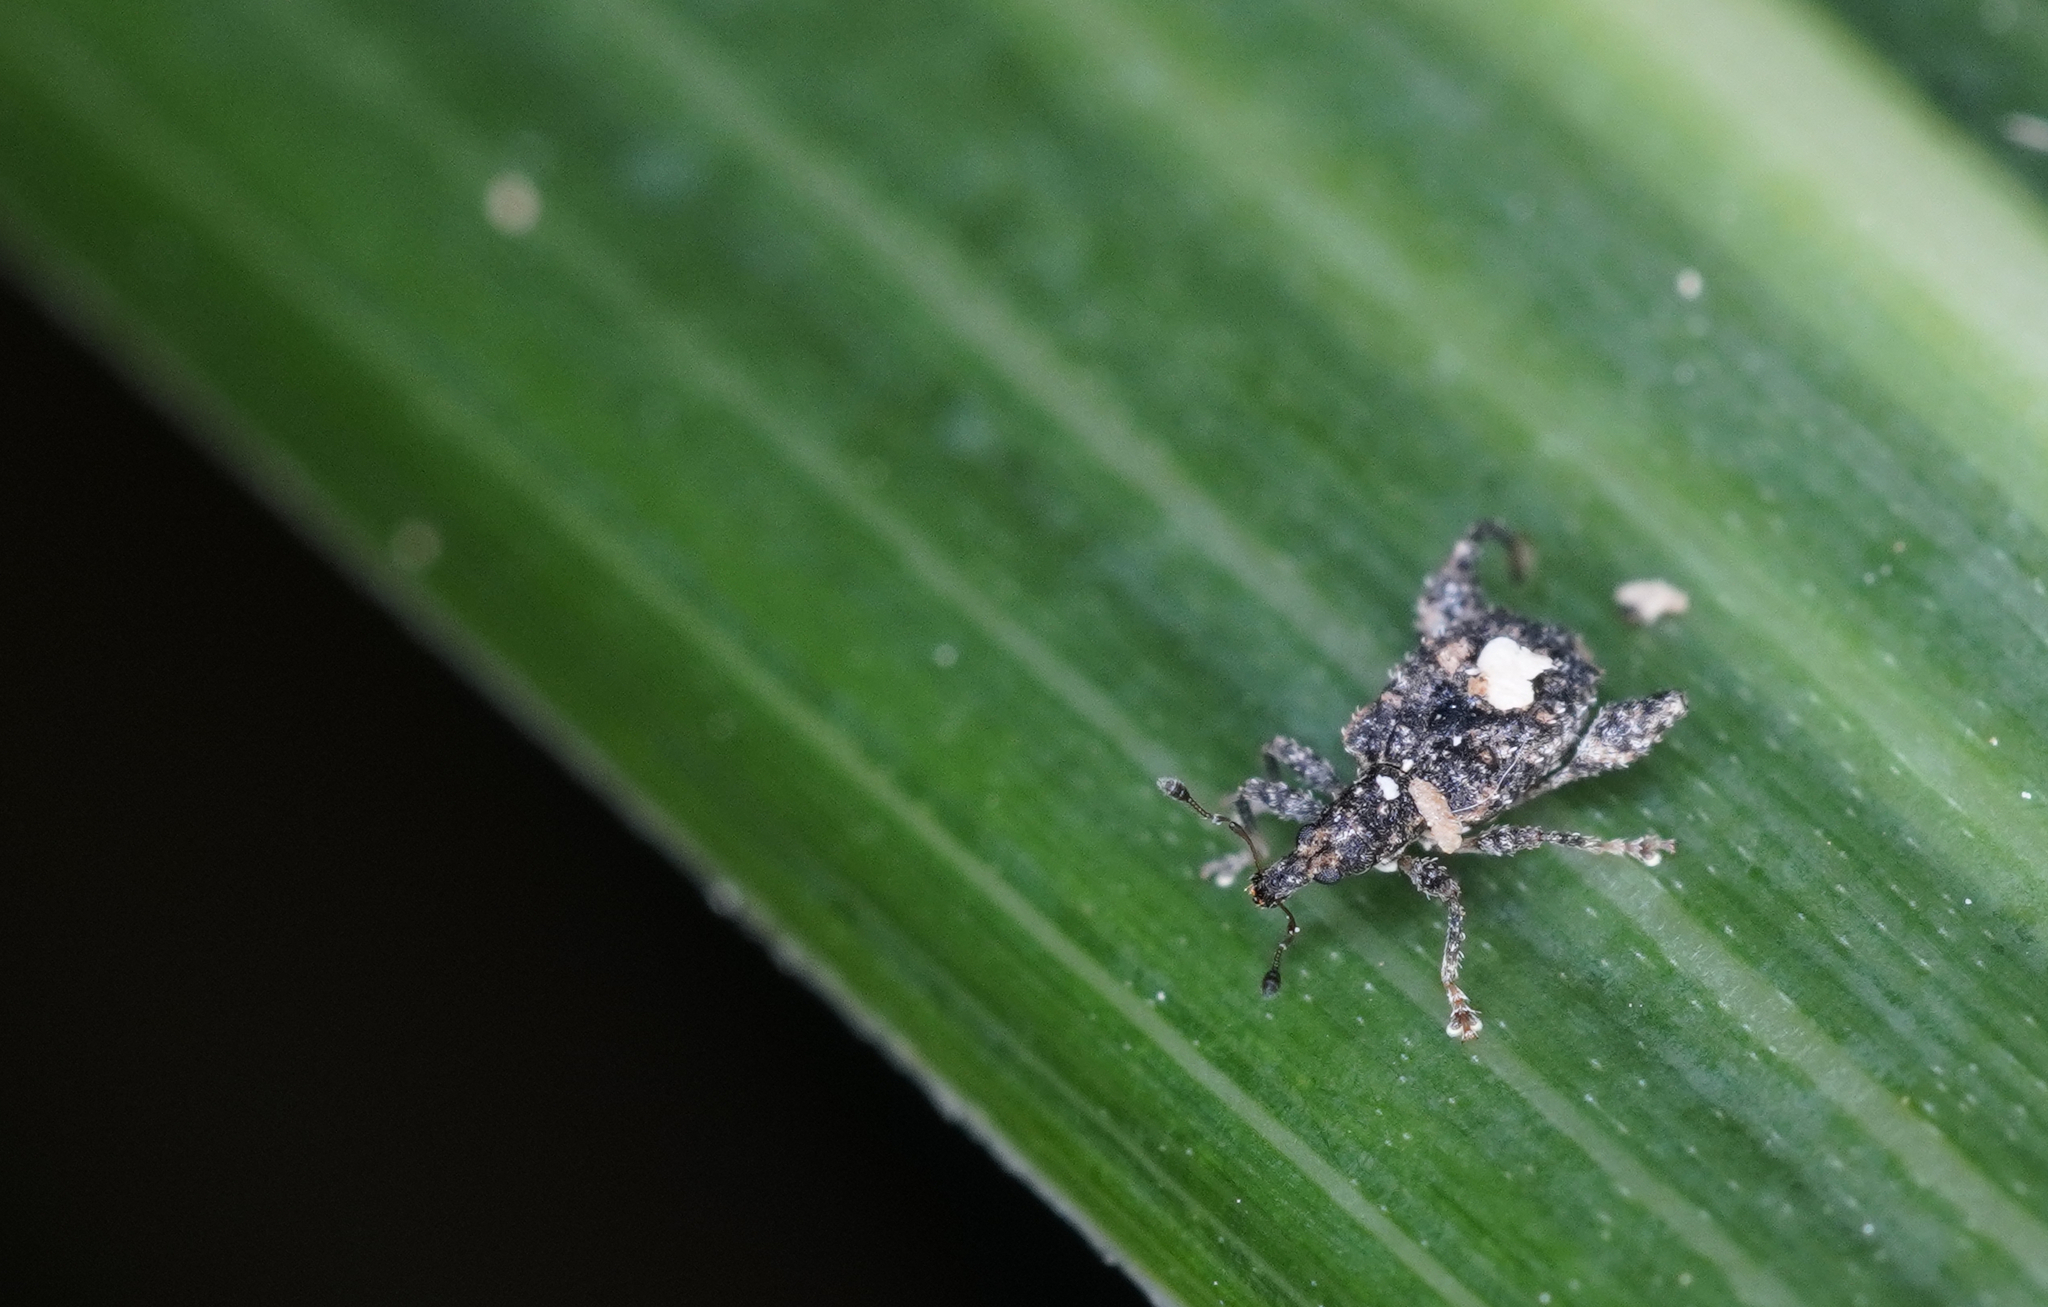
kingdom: Animalia
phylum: Arthropoda
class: Insecta
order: Coleoptera
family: Curculionidae
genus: Pactola
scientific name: Pactola variabilis
